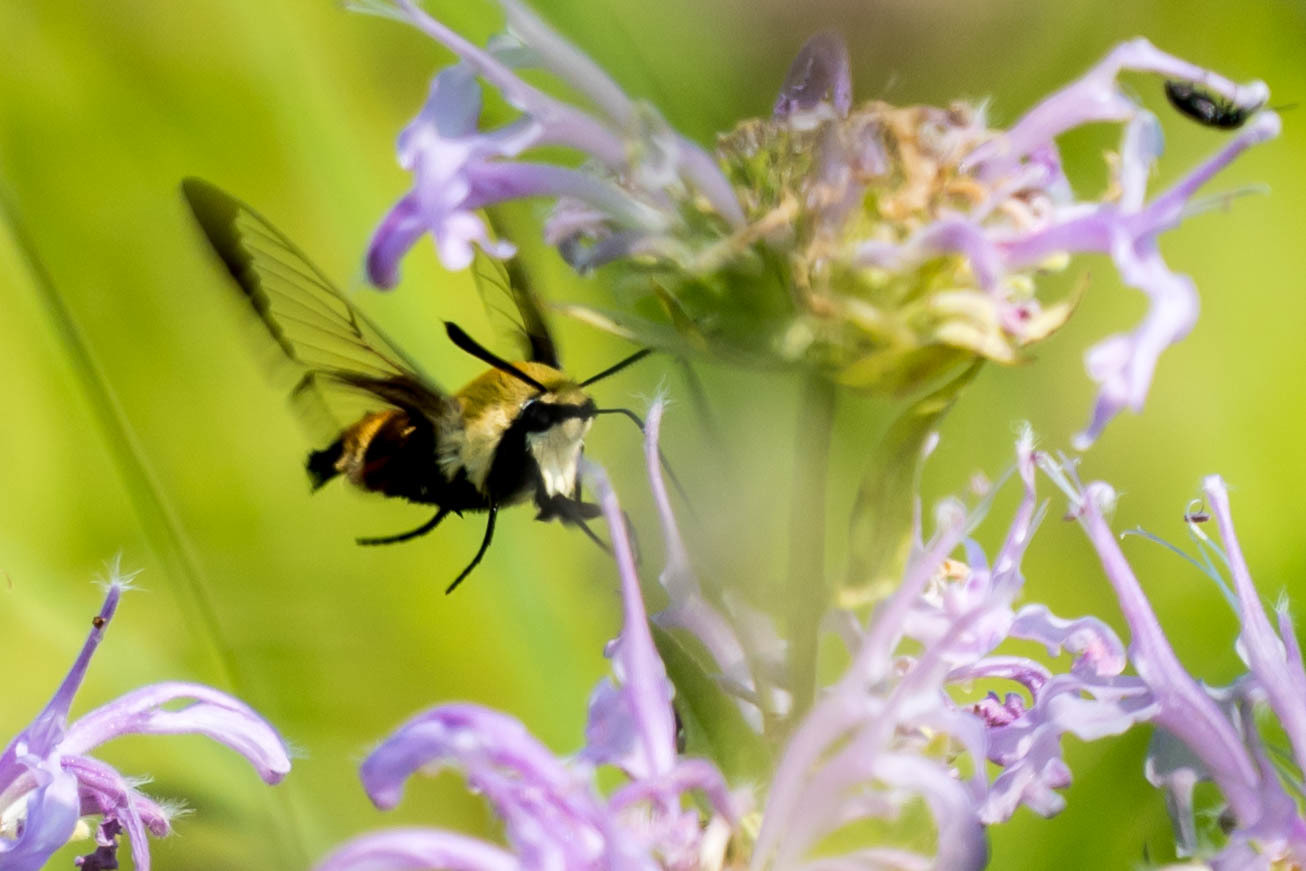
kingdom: Animalia
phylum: Arthropoda
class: Insecta
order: Lepidoptera
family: Sphingidae
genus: Hemaris
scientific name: Hemaris diffinis
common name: Bumblebee moth
